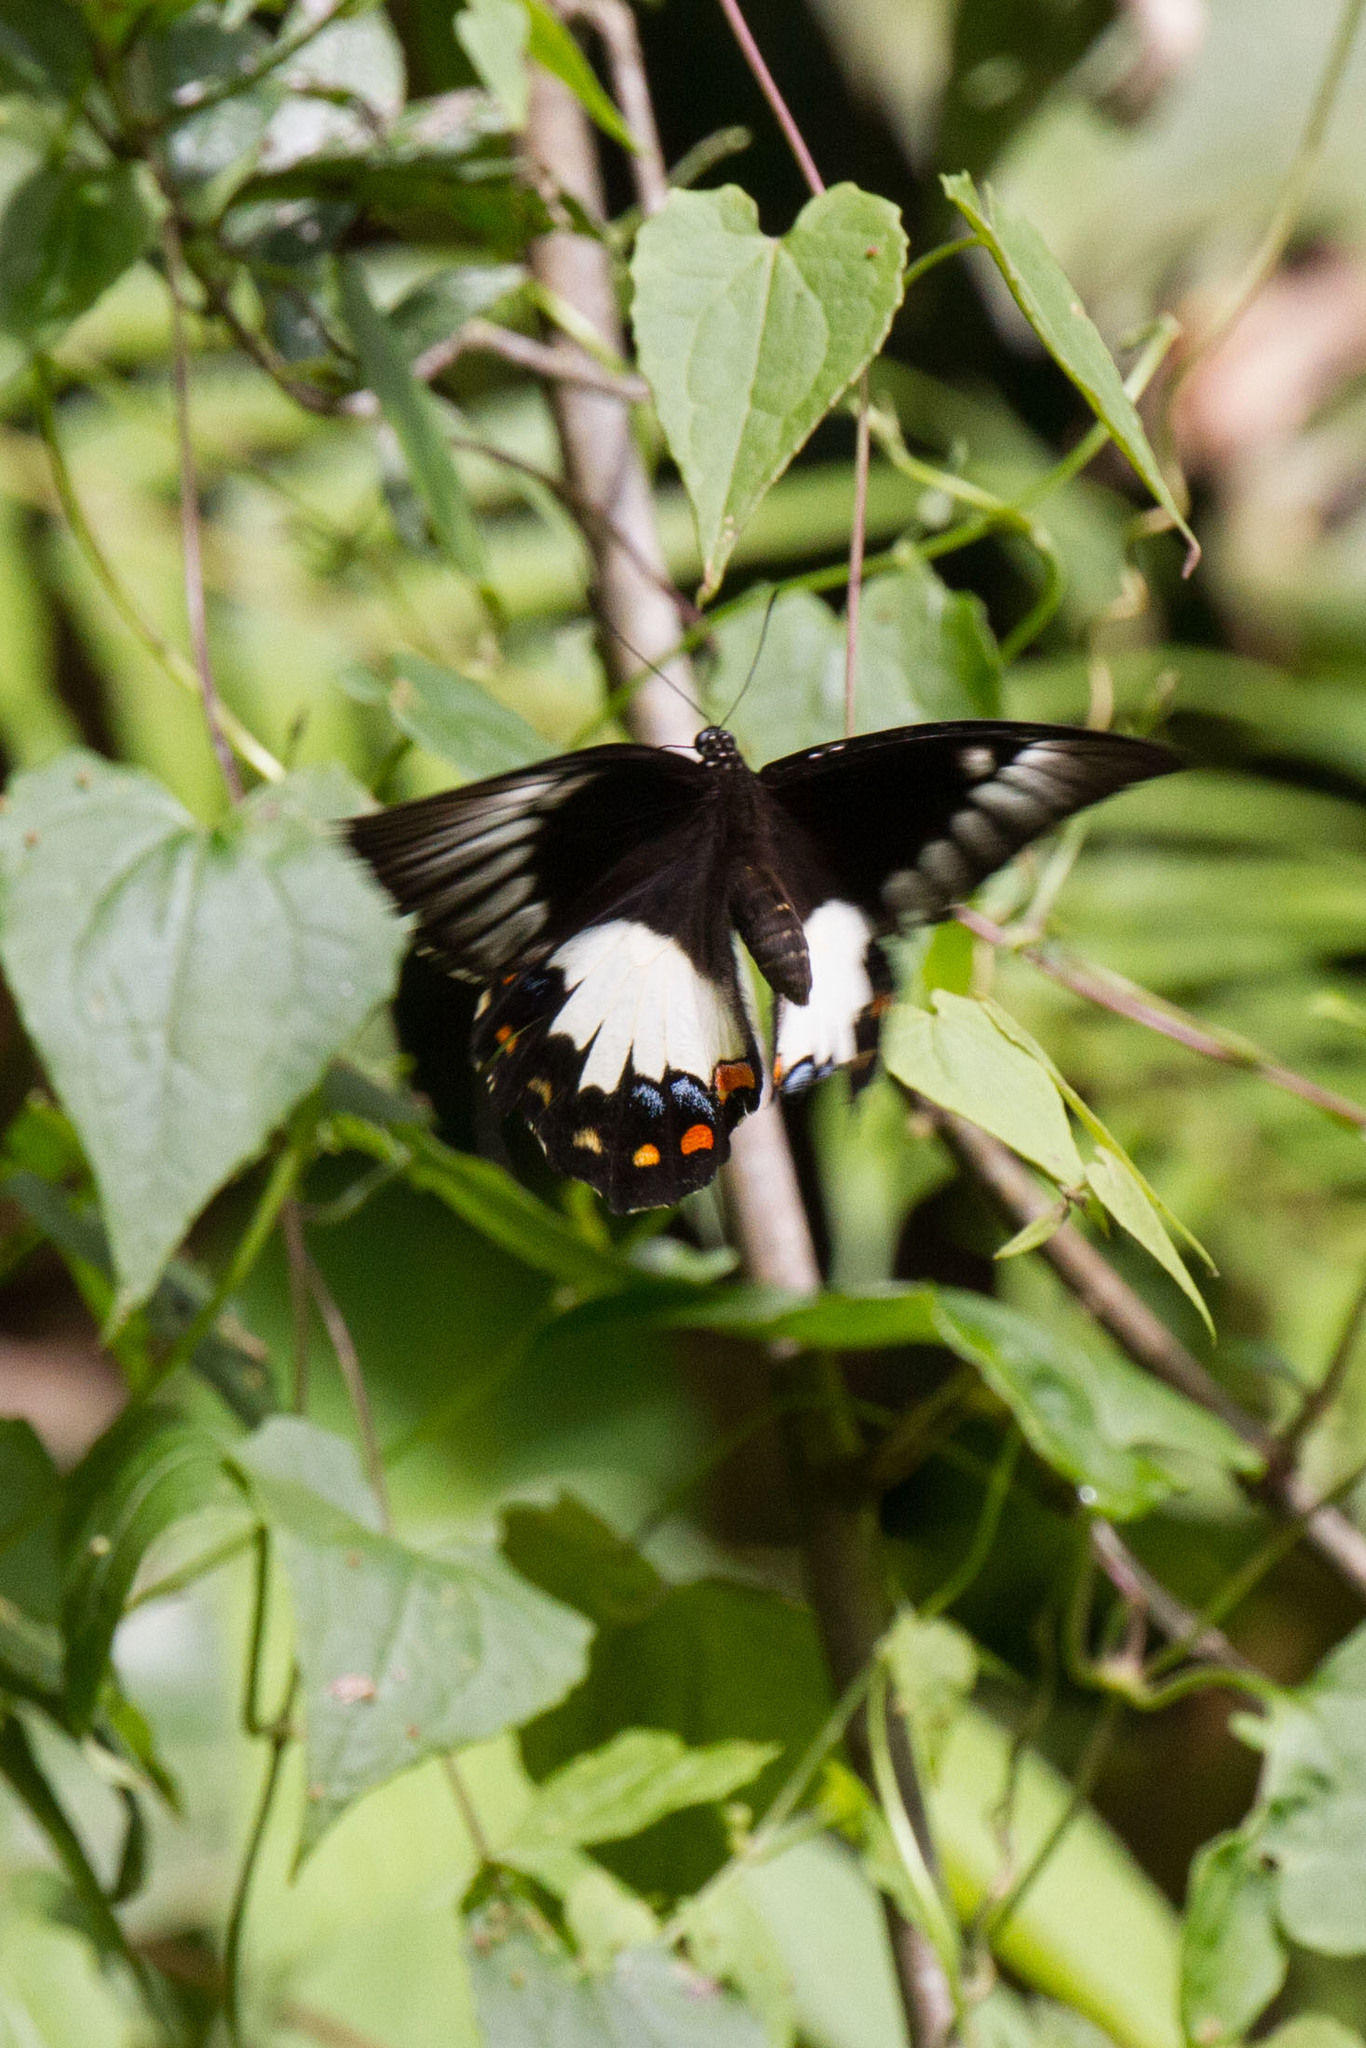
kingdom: Animalia
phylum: Arthropoda
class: Insecta
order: Lepidoptera
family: Papilionidae
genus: Papilio
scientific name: Papilio aegeus
